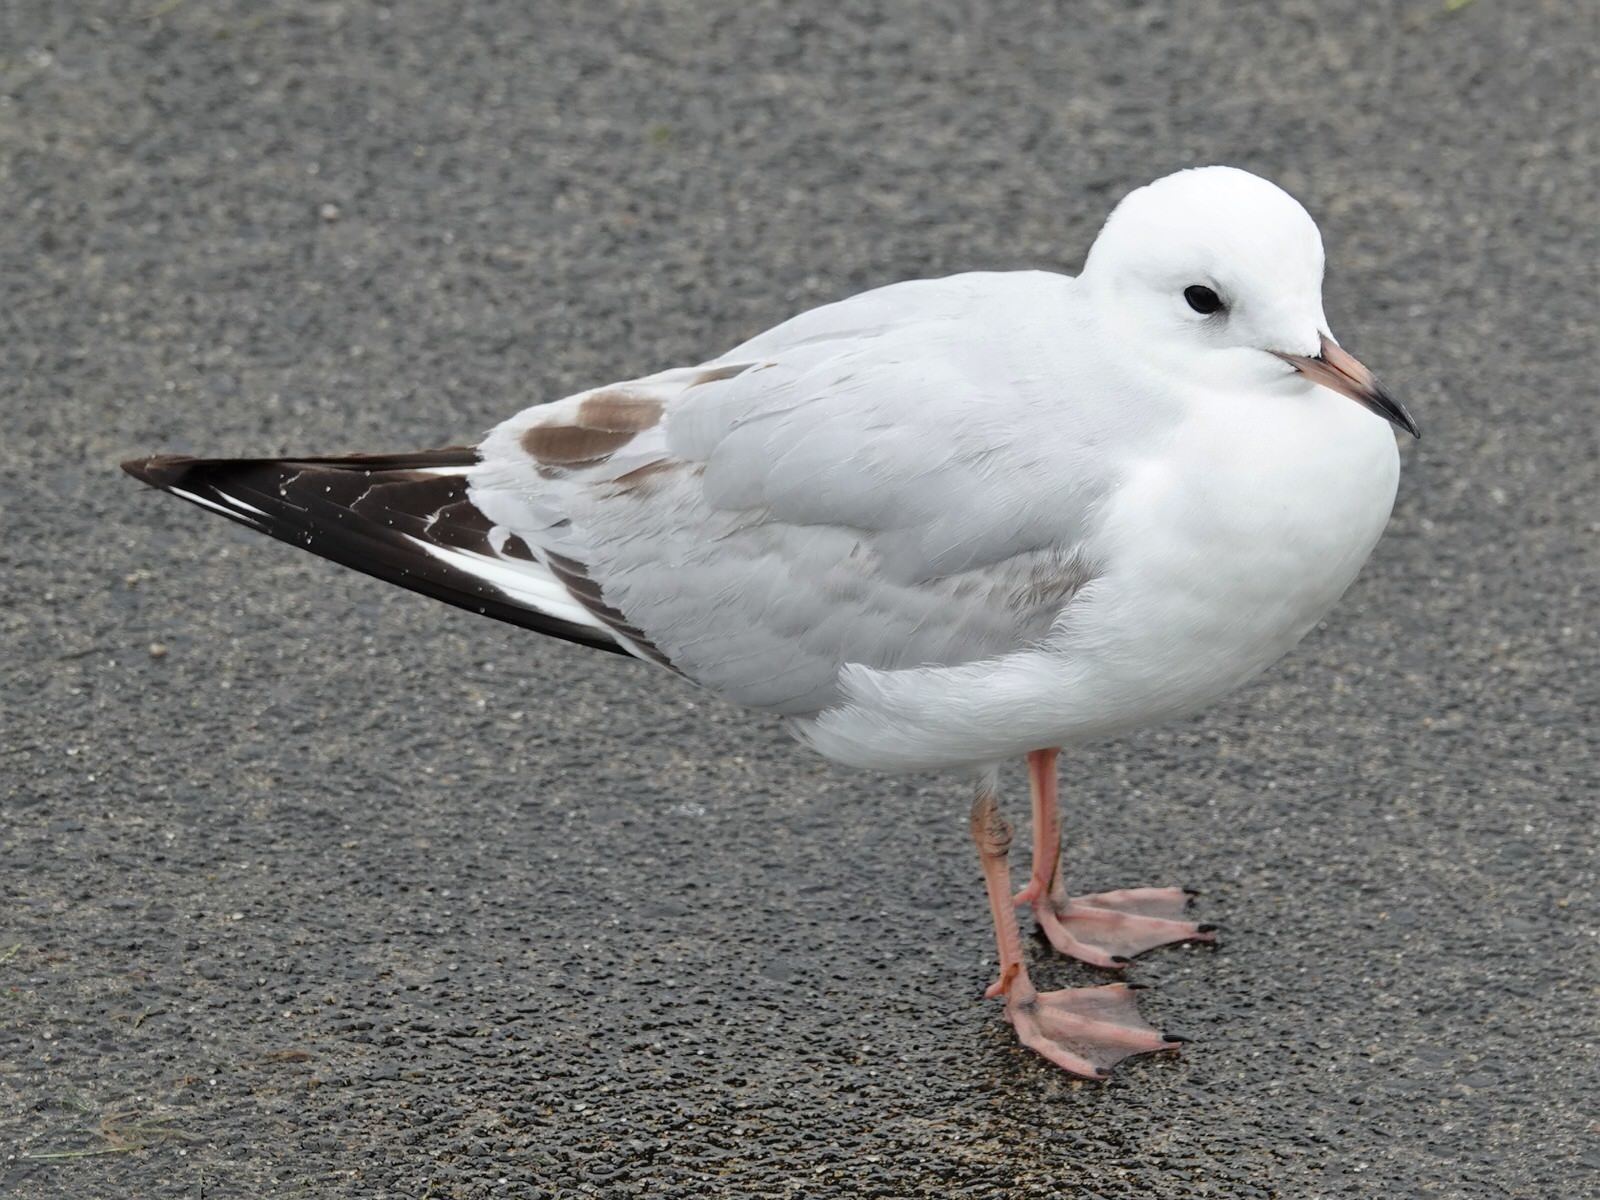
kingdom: Animalia
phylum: Chordata
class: Aves
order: Charadriiformes
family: Laridae
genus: Chroicocephalus
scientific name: Chroicocephalus novaehollandiae
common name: Silver gull
